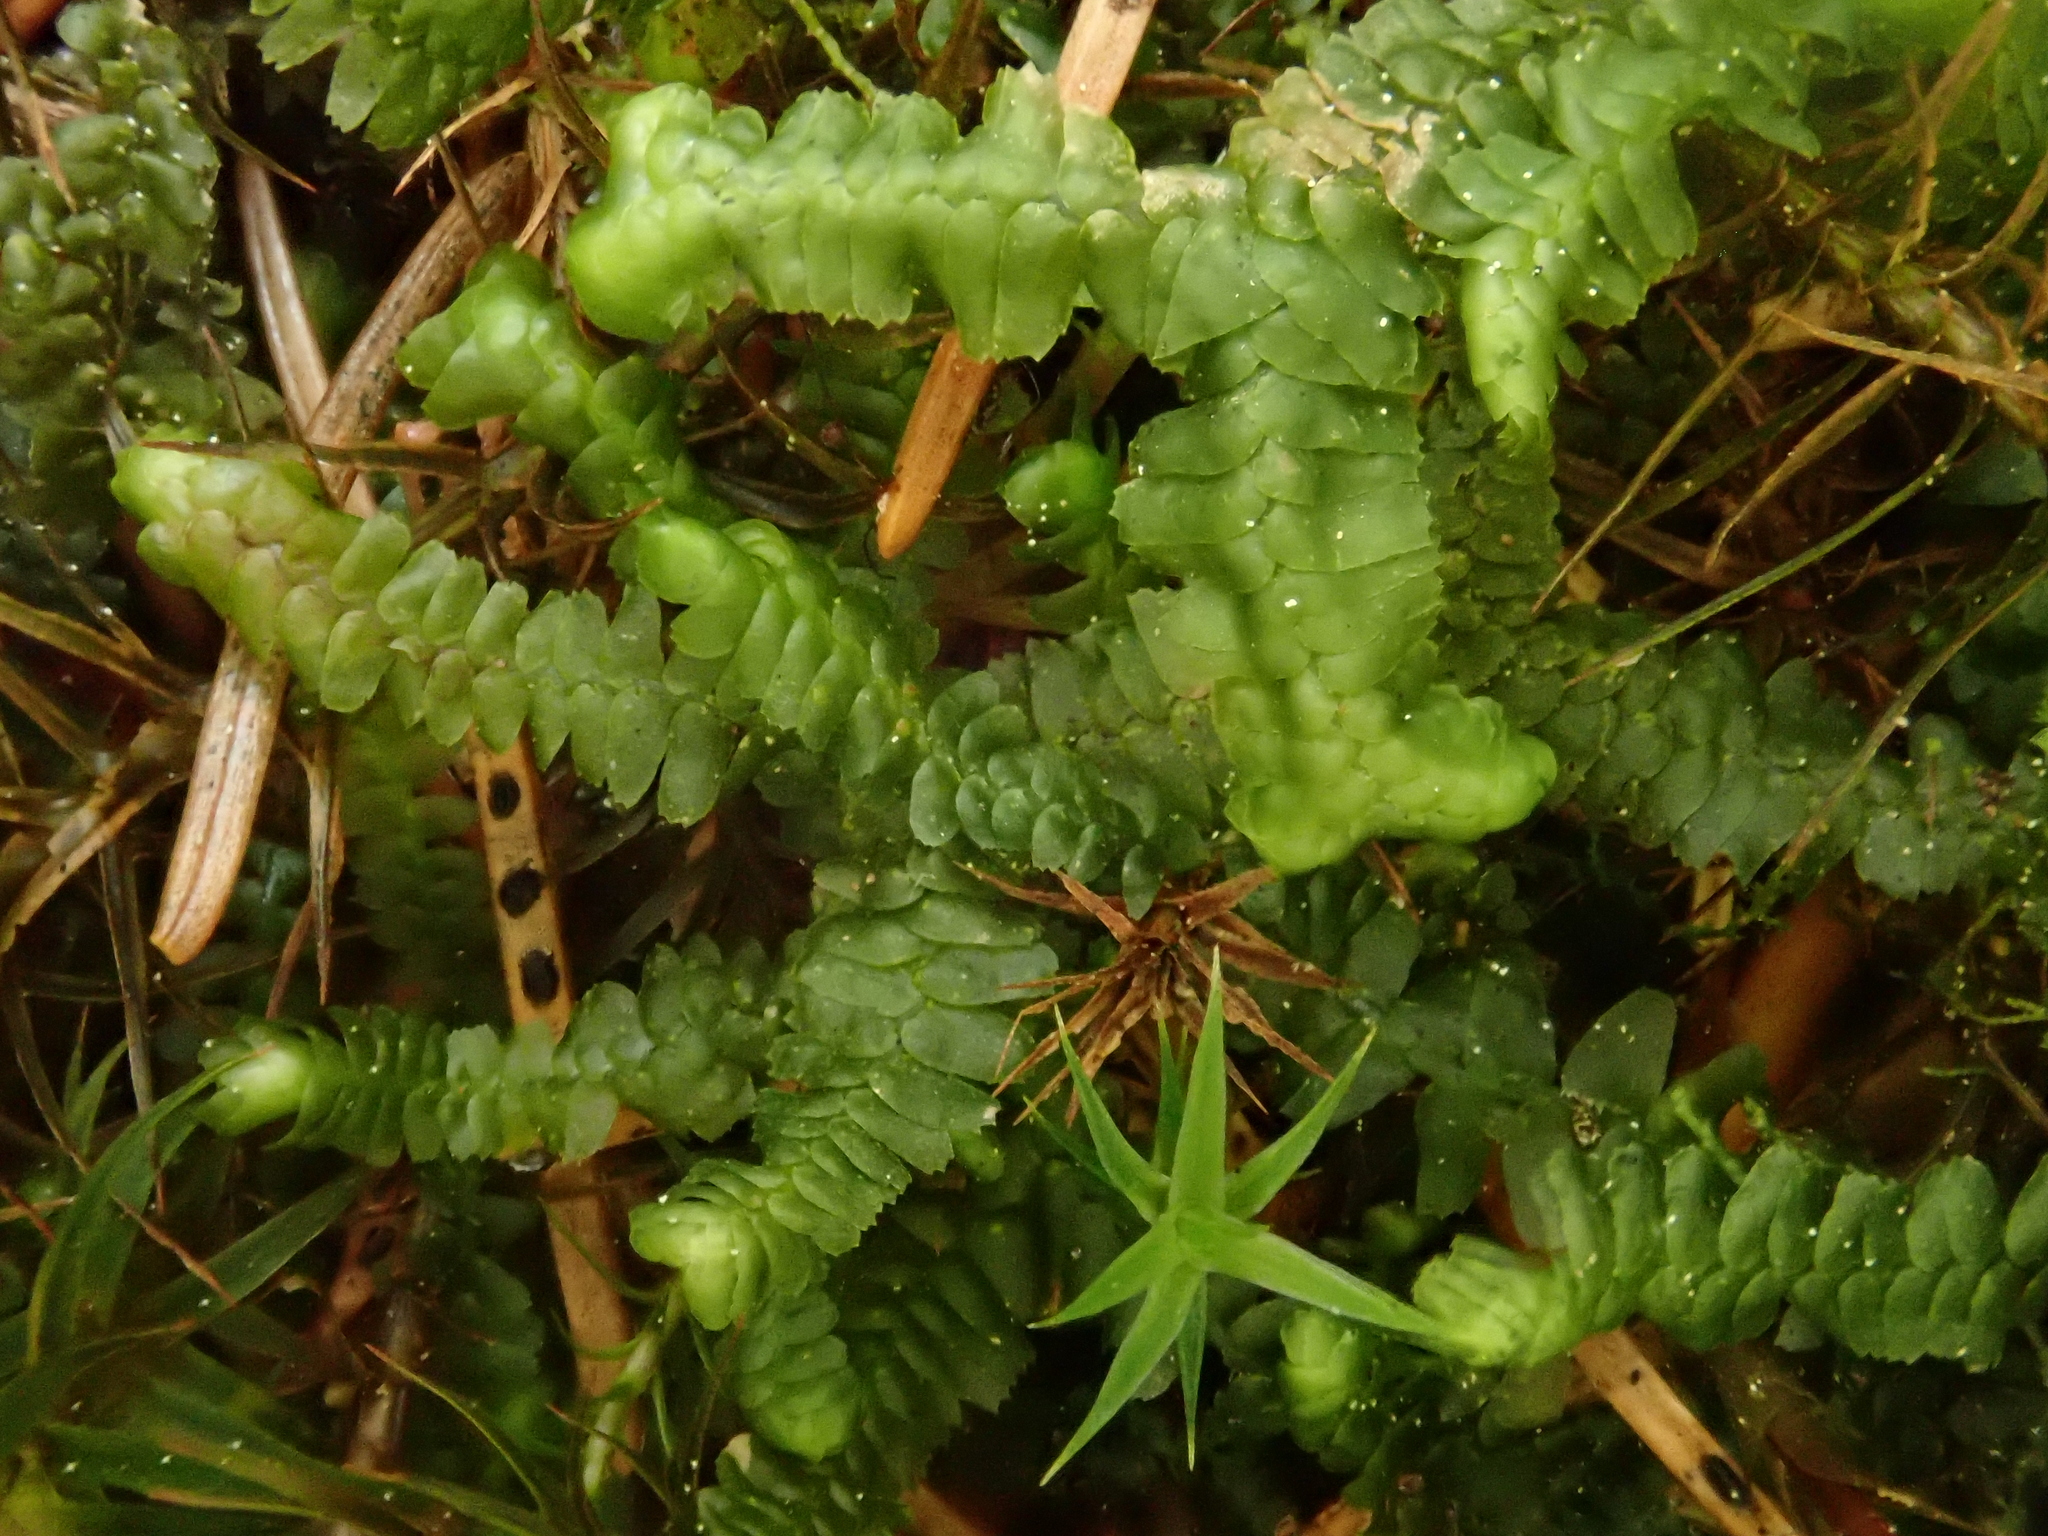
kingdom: Plantae
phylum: Marchantiophyta
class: Jungermanniopsida
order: Jungermanniales
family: Lepidoziaceae
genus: Bazzania
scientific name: Bazzania trilobata
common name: Three-lobed whipwort
